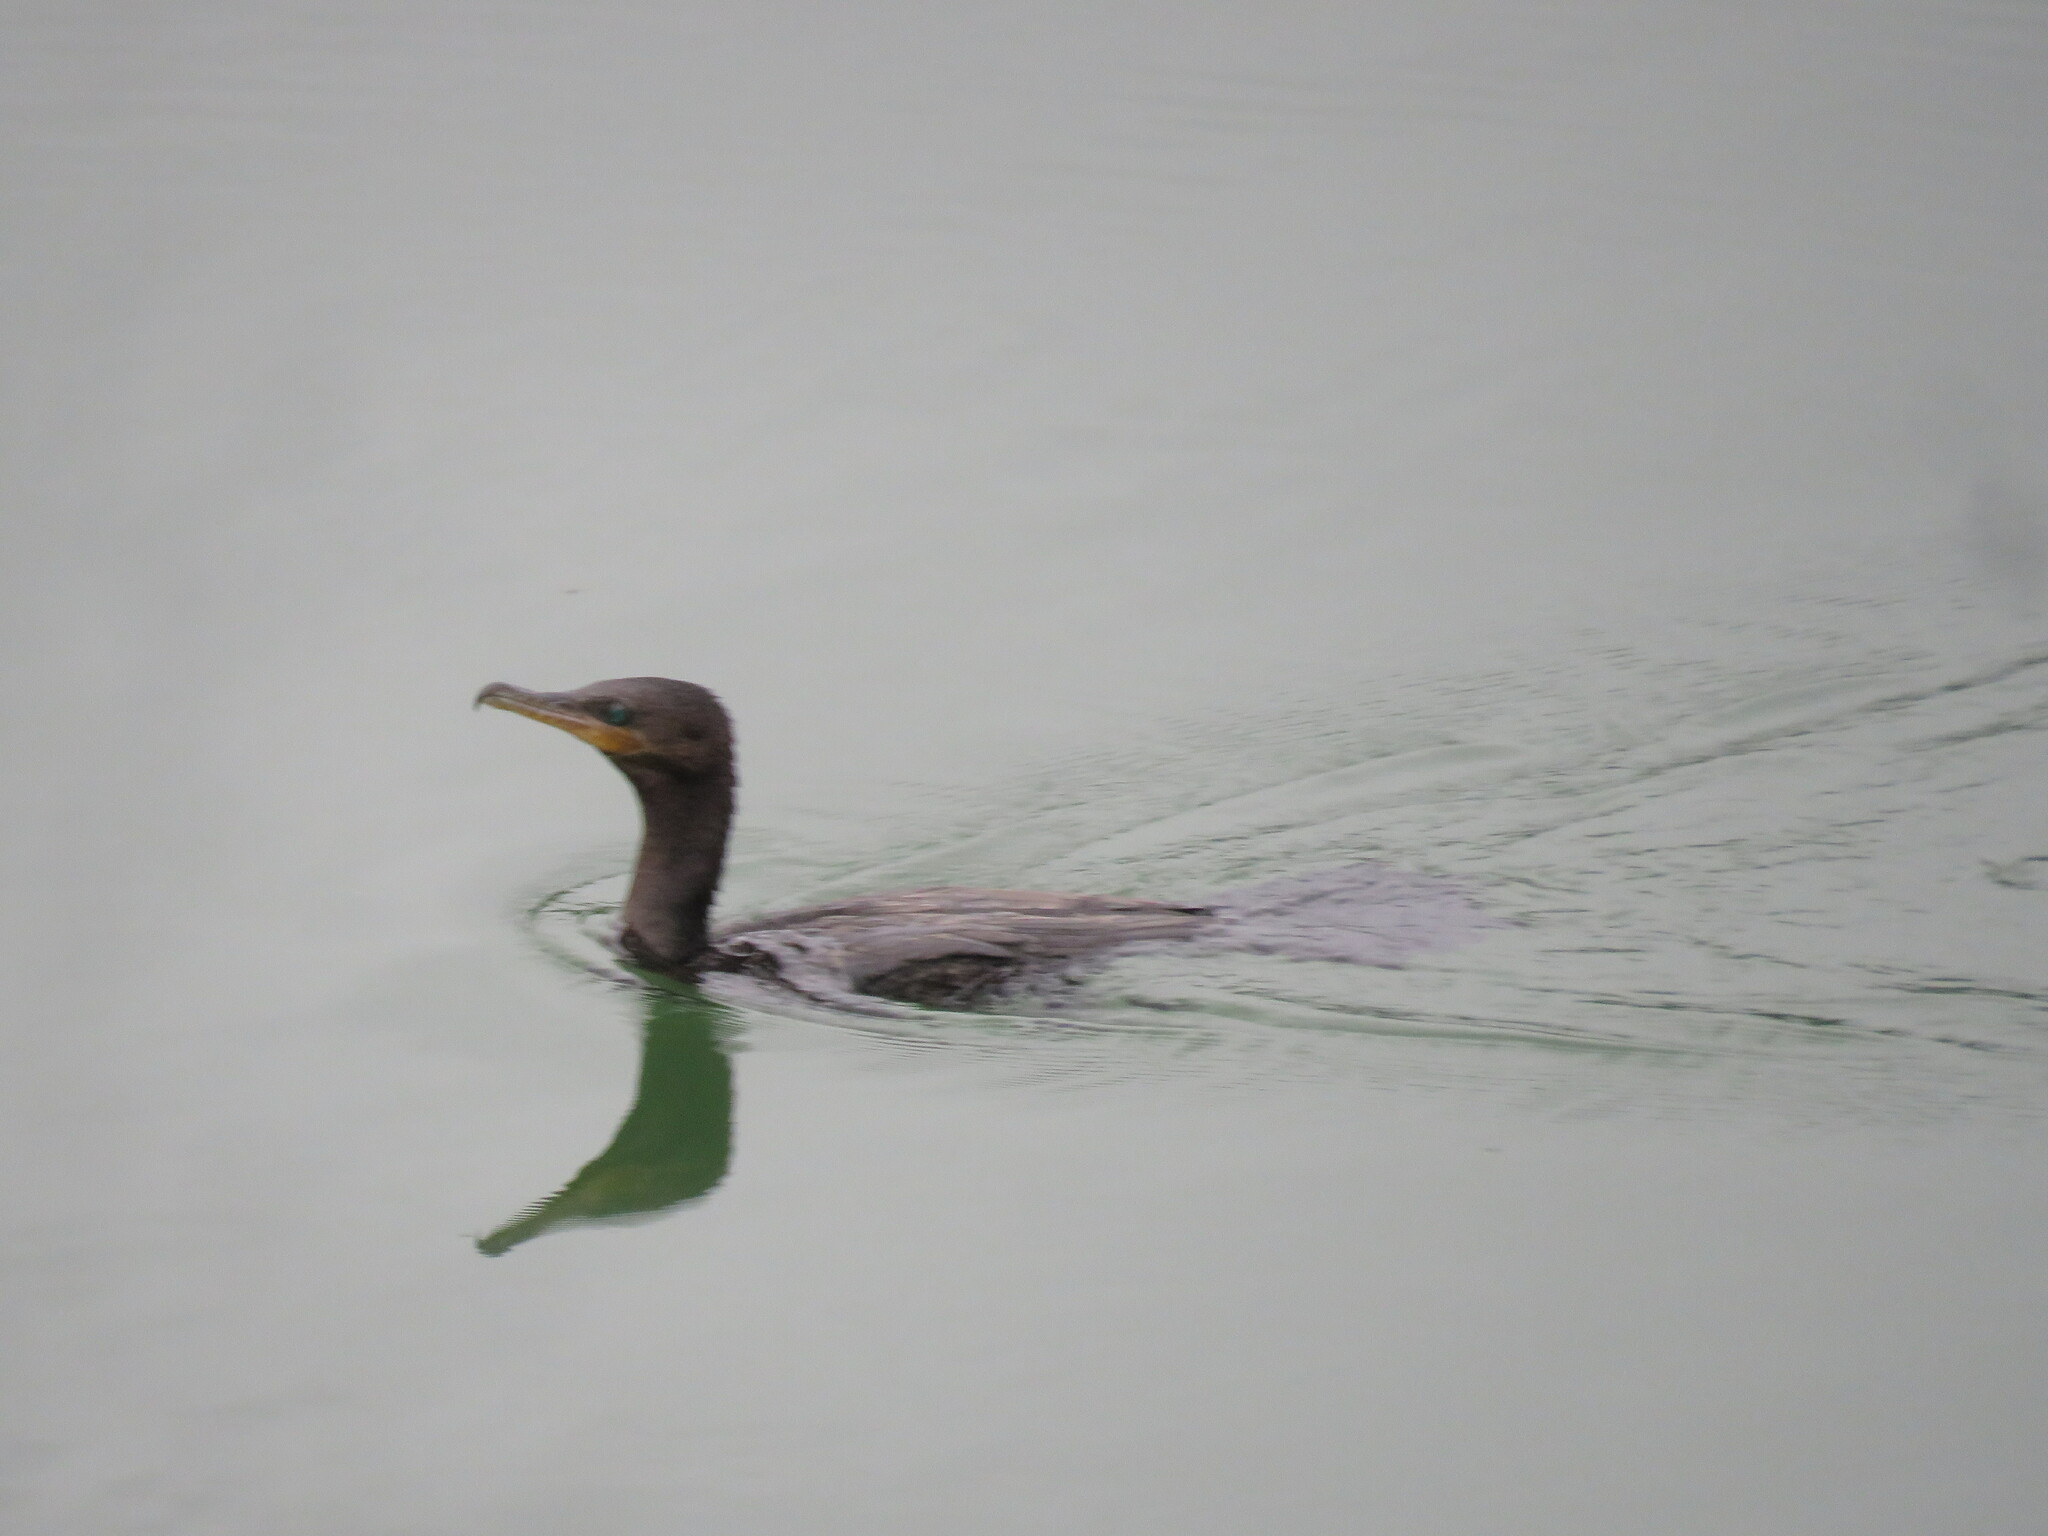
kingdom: Animalia
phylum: Chordata
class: Aves
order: Suliformes
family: Phalacrocoracidae
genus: Phalacrocorax
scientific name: Phalacrocorax brasilianus
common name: Neotropic cormorant
